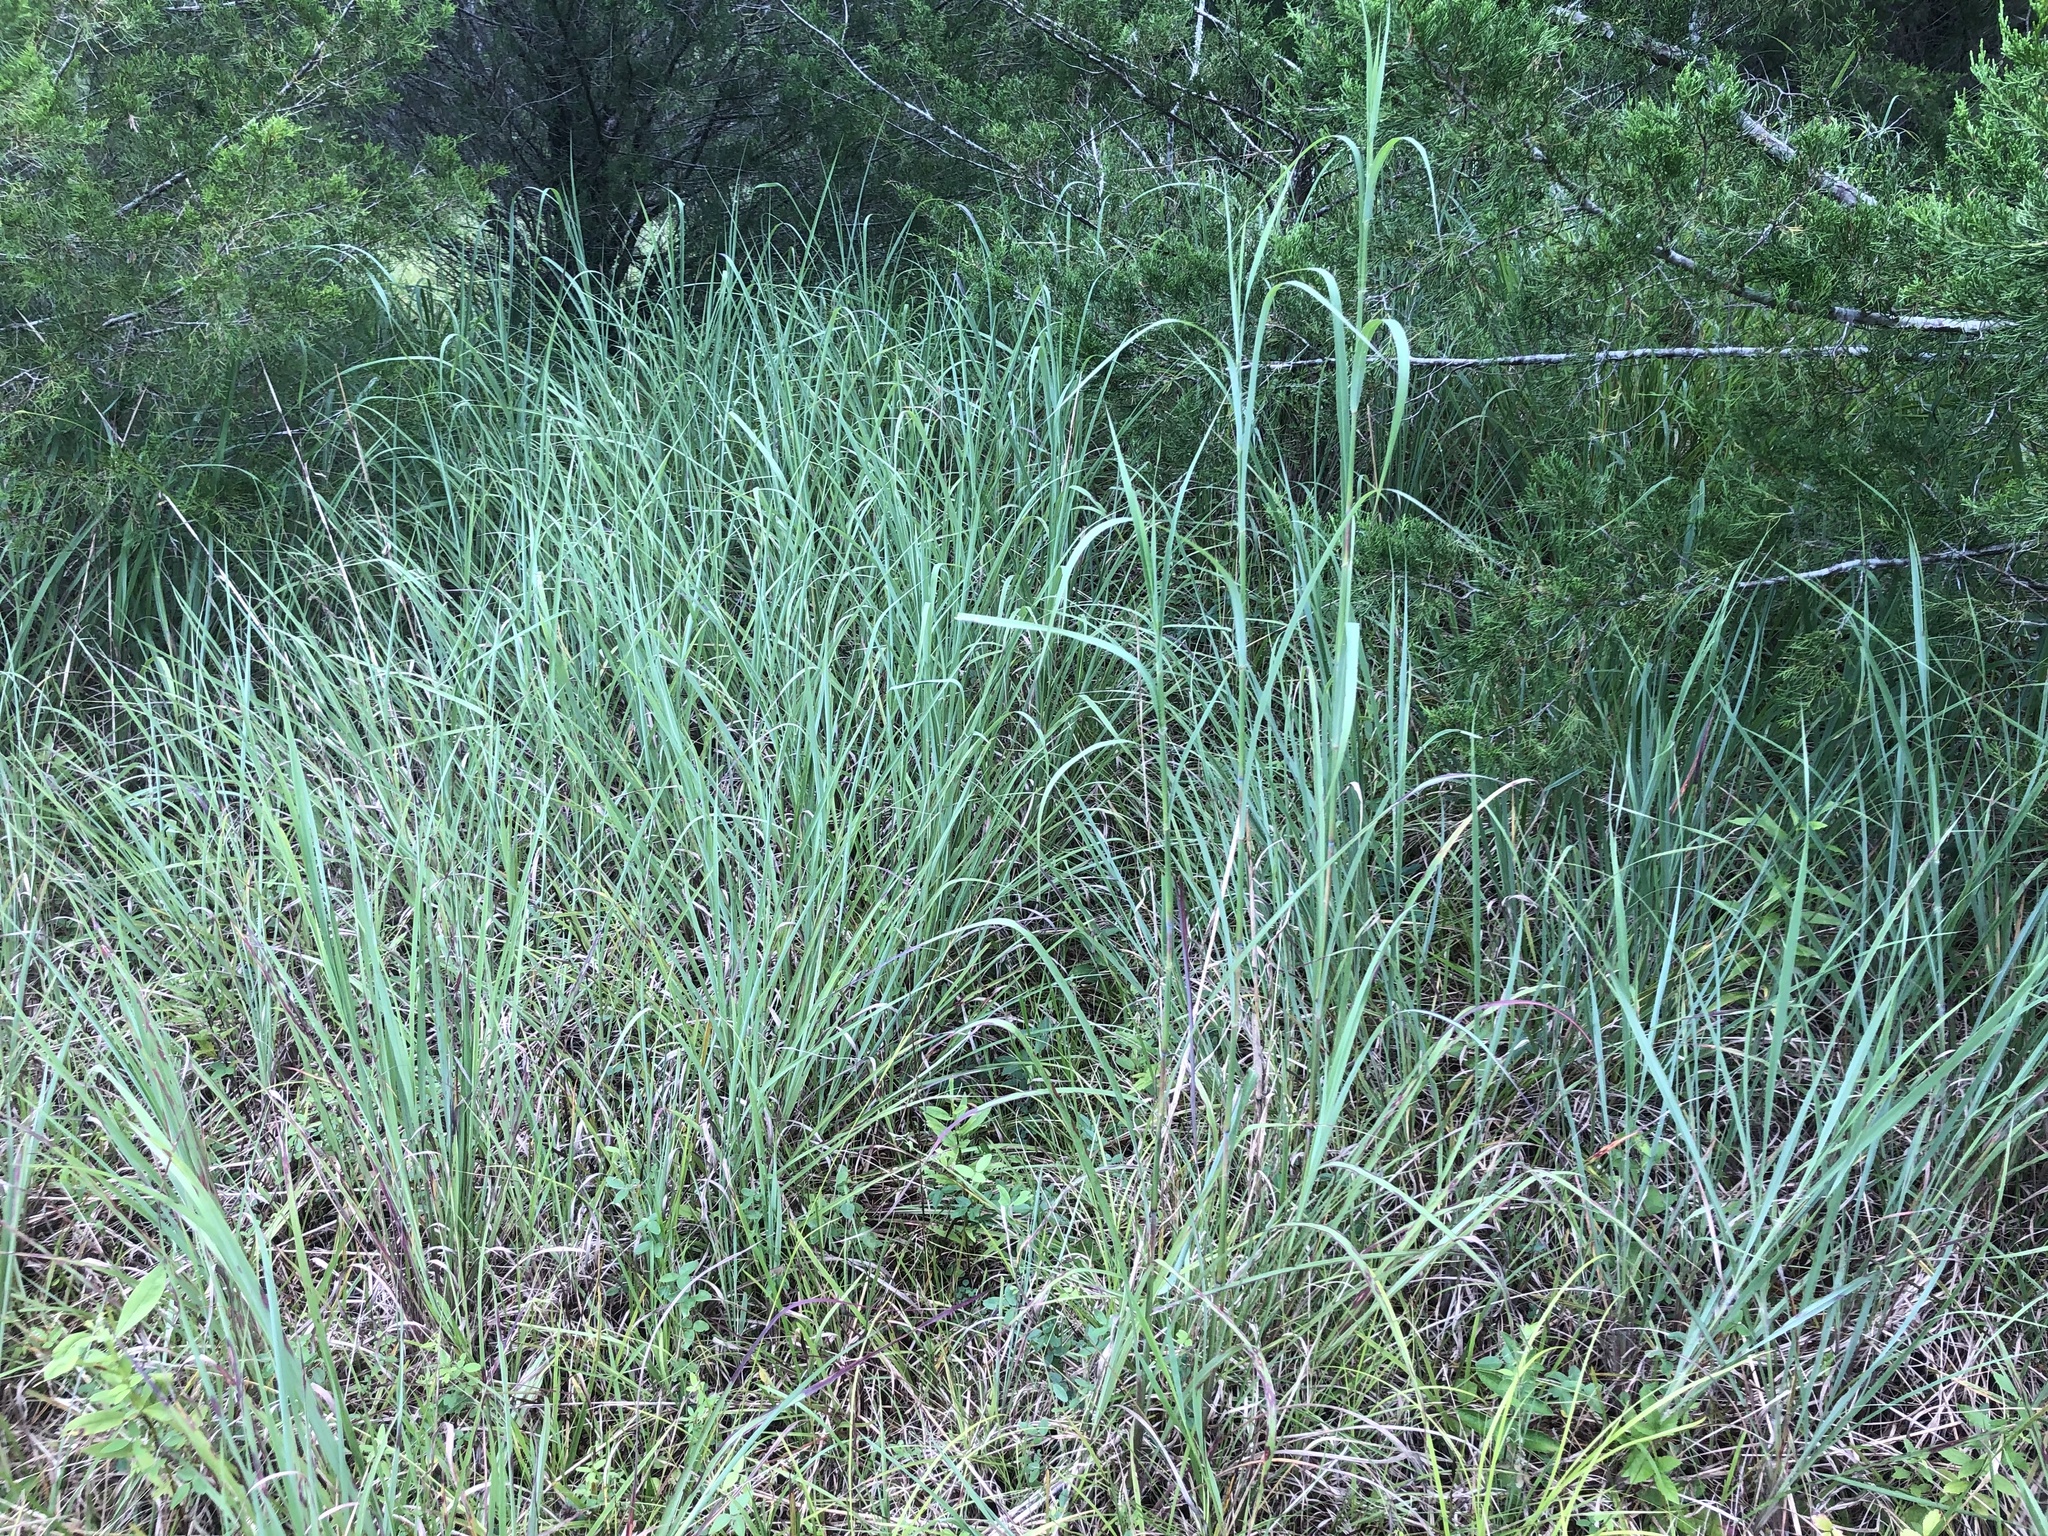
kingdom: Plantae
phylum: Tracheophyta
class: Liliopsida
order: Poales
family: Poaceae
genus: Andropogon
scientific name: Andropogon gerardi
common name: Big bluestem
